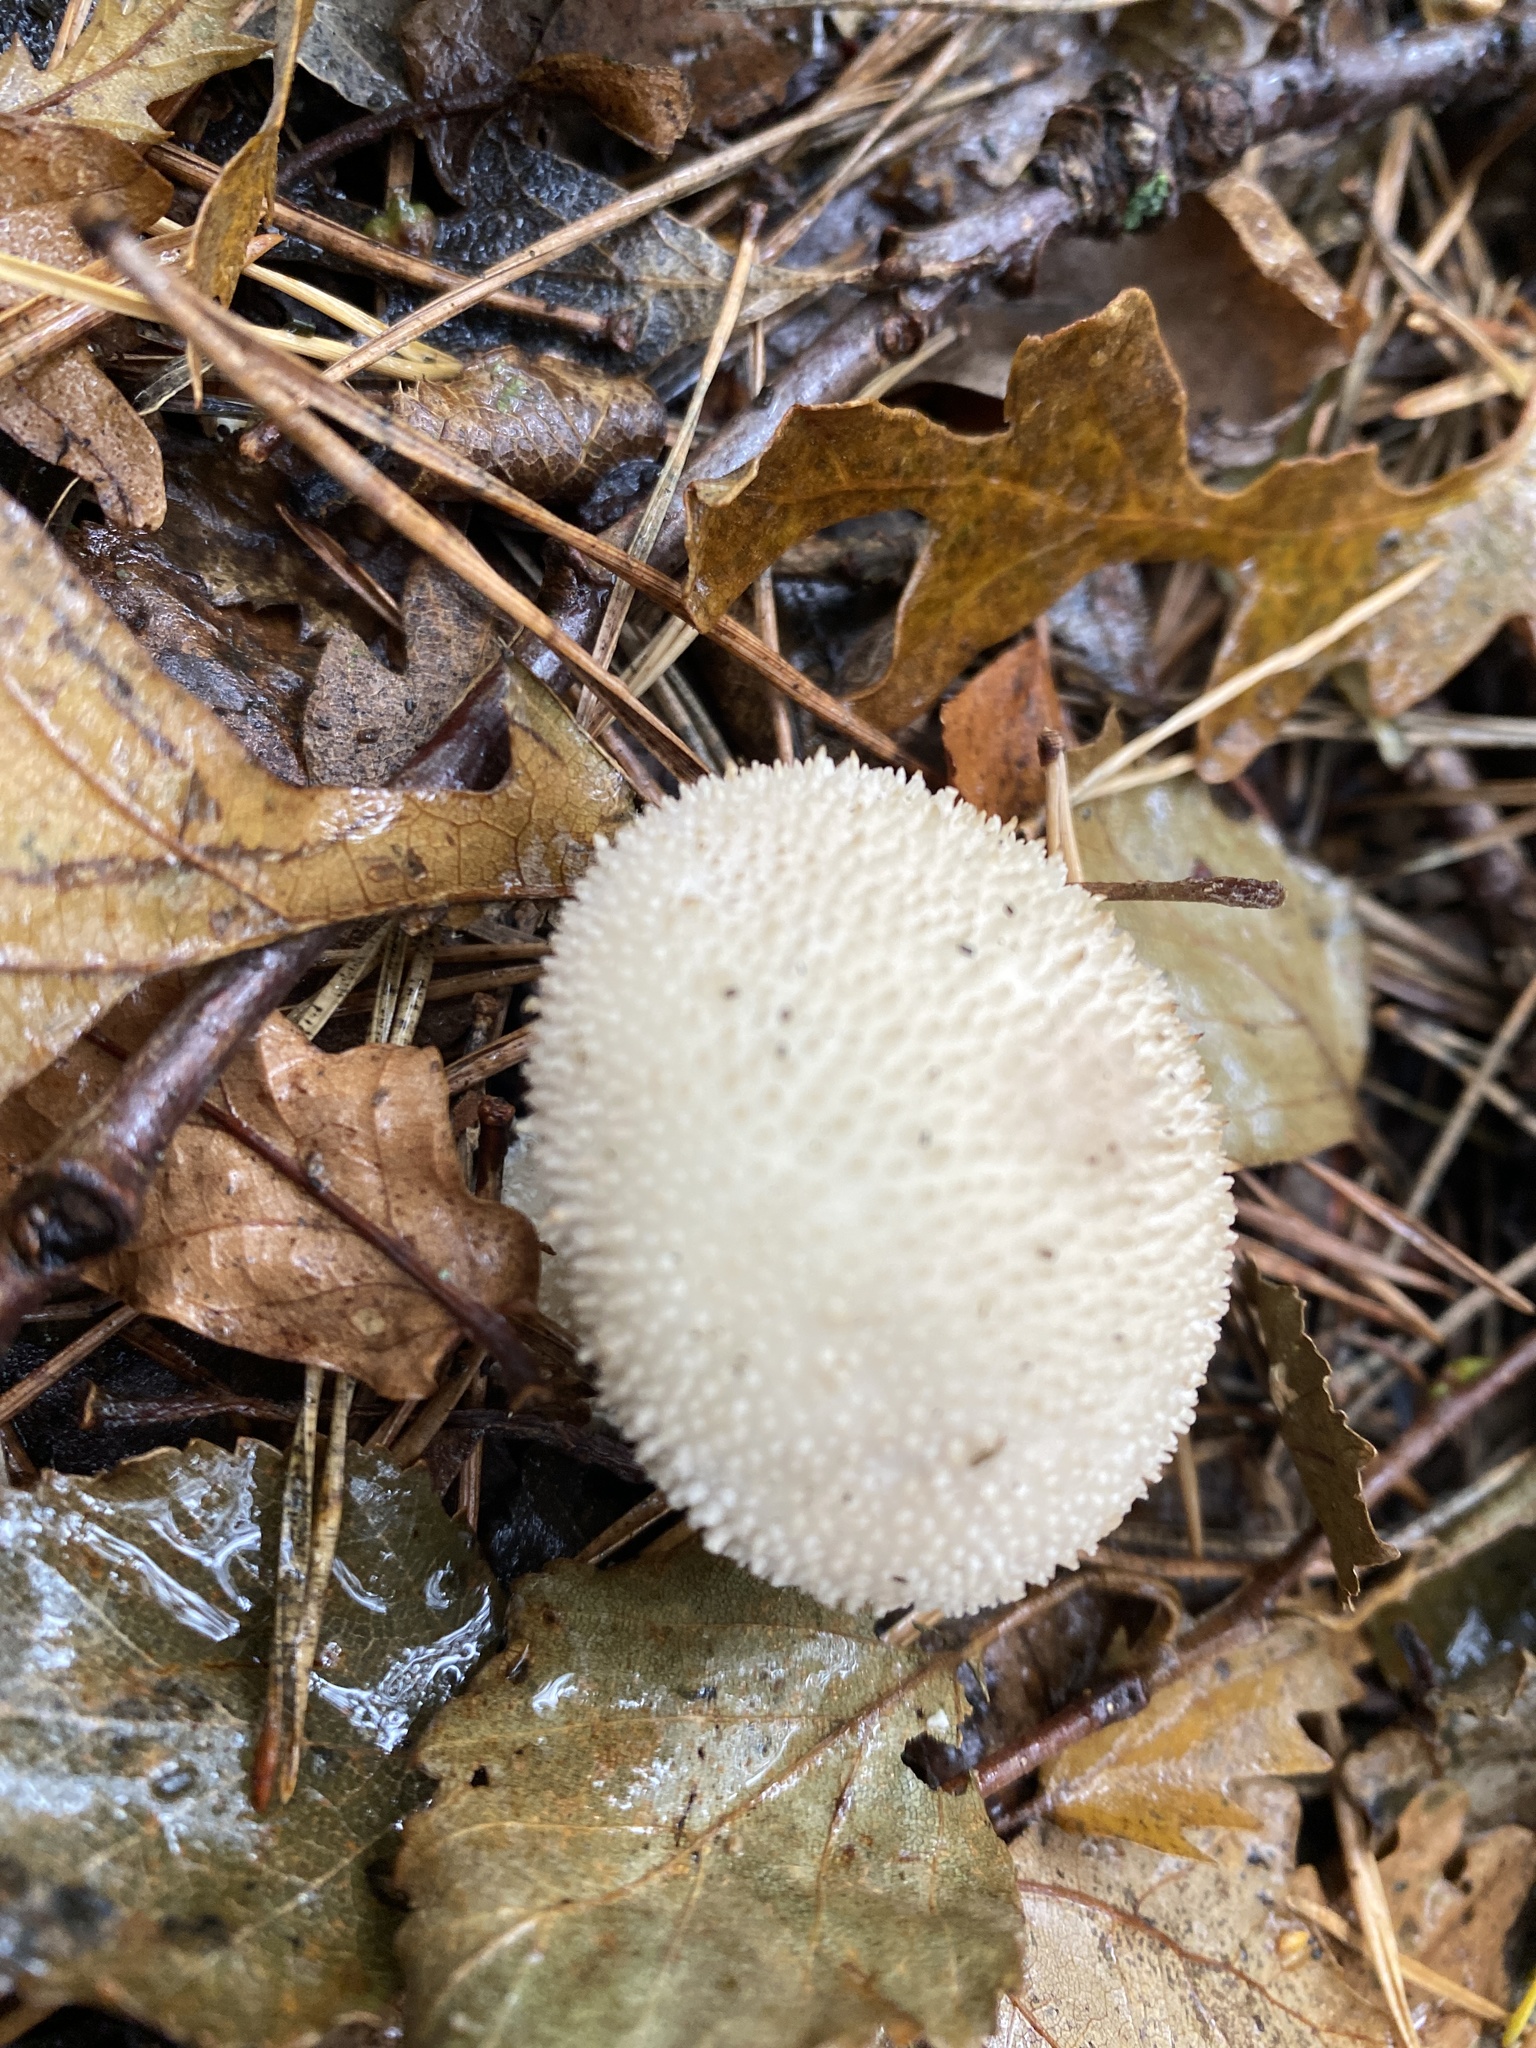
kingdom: Fungi
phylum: Basidiomycota
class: Agaricomycetes
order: Agaricales
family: Lycoperdaceae
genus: Lycoperdon
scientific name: Lycoperdon perlatum
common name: Common puffball
